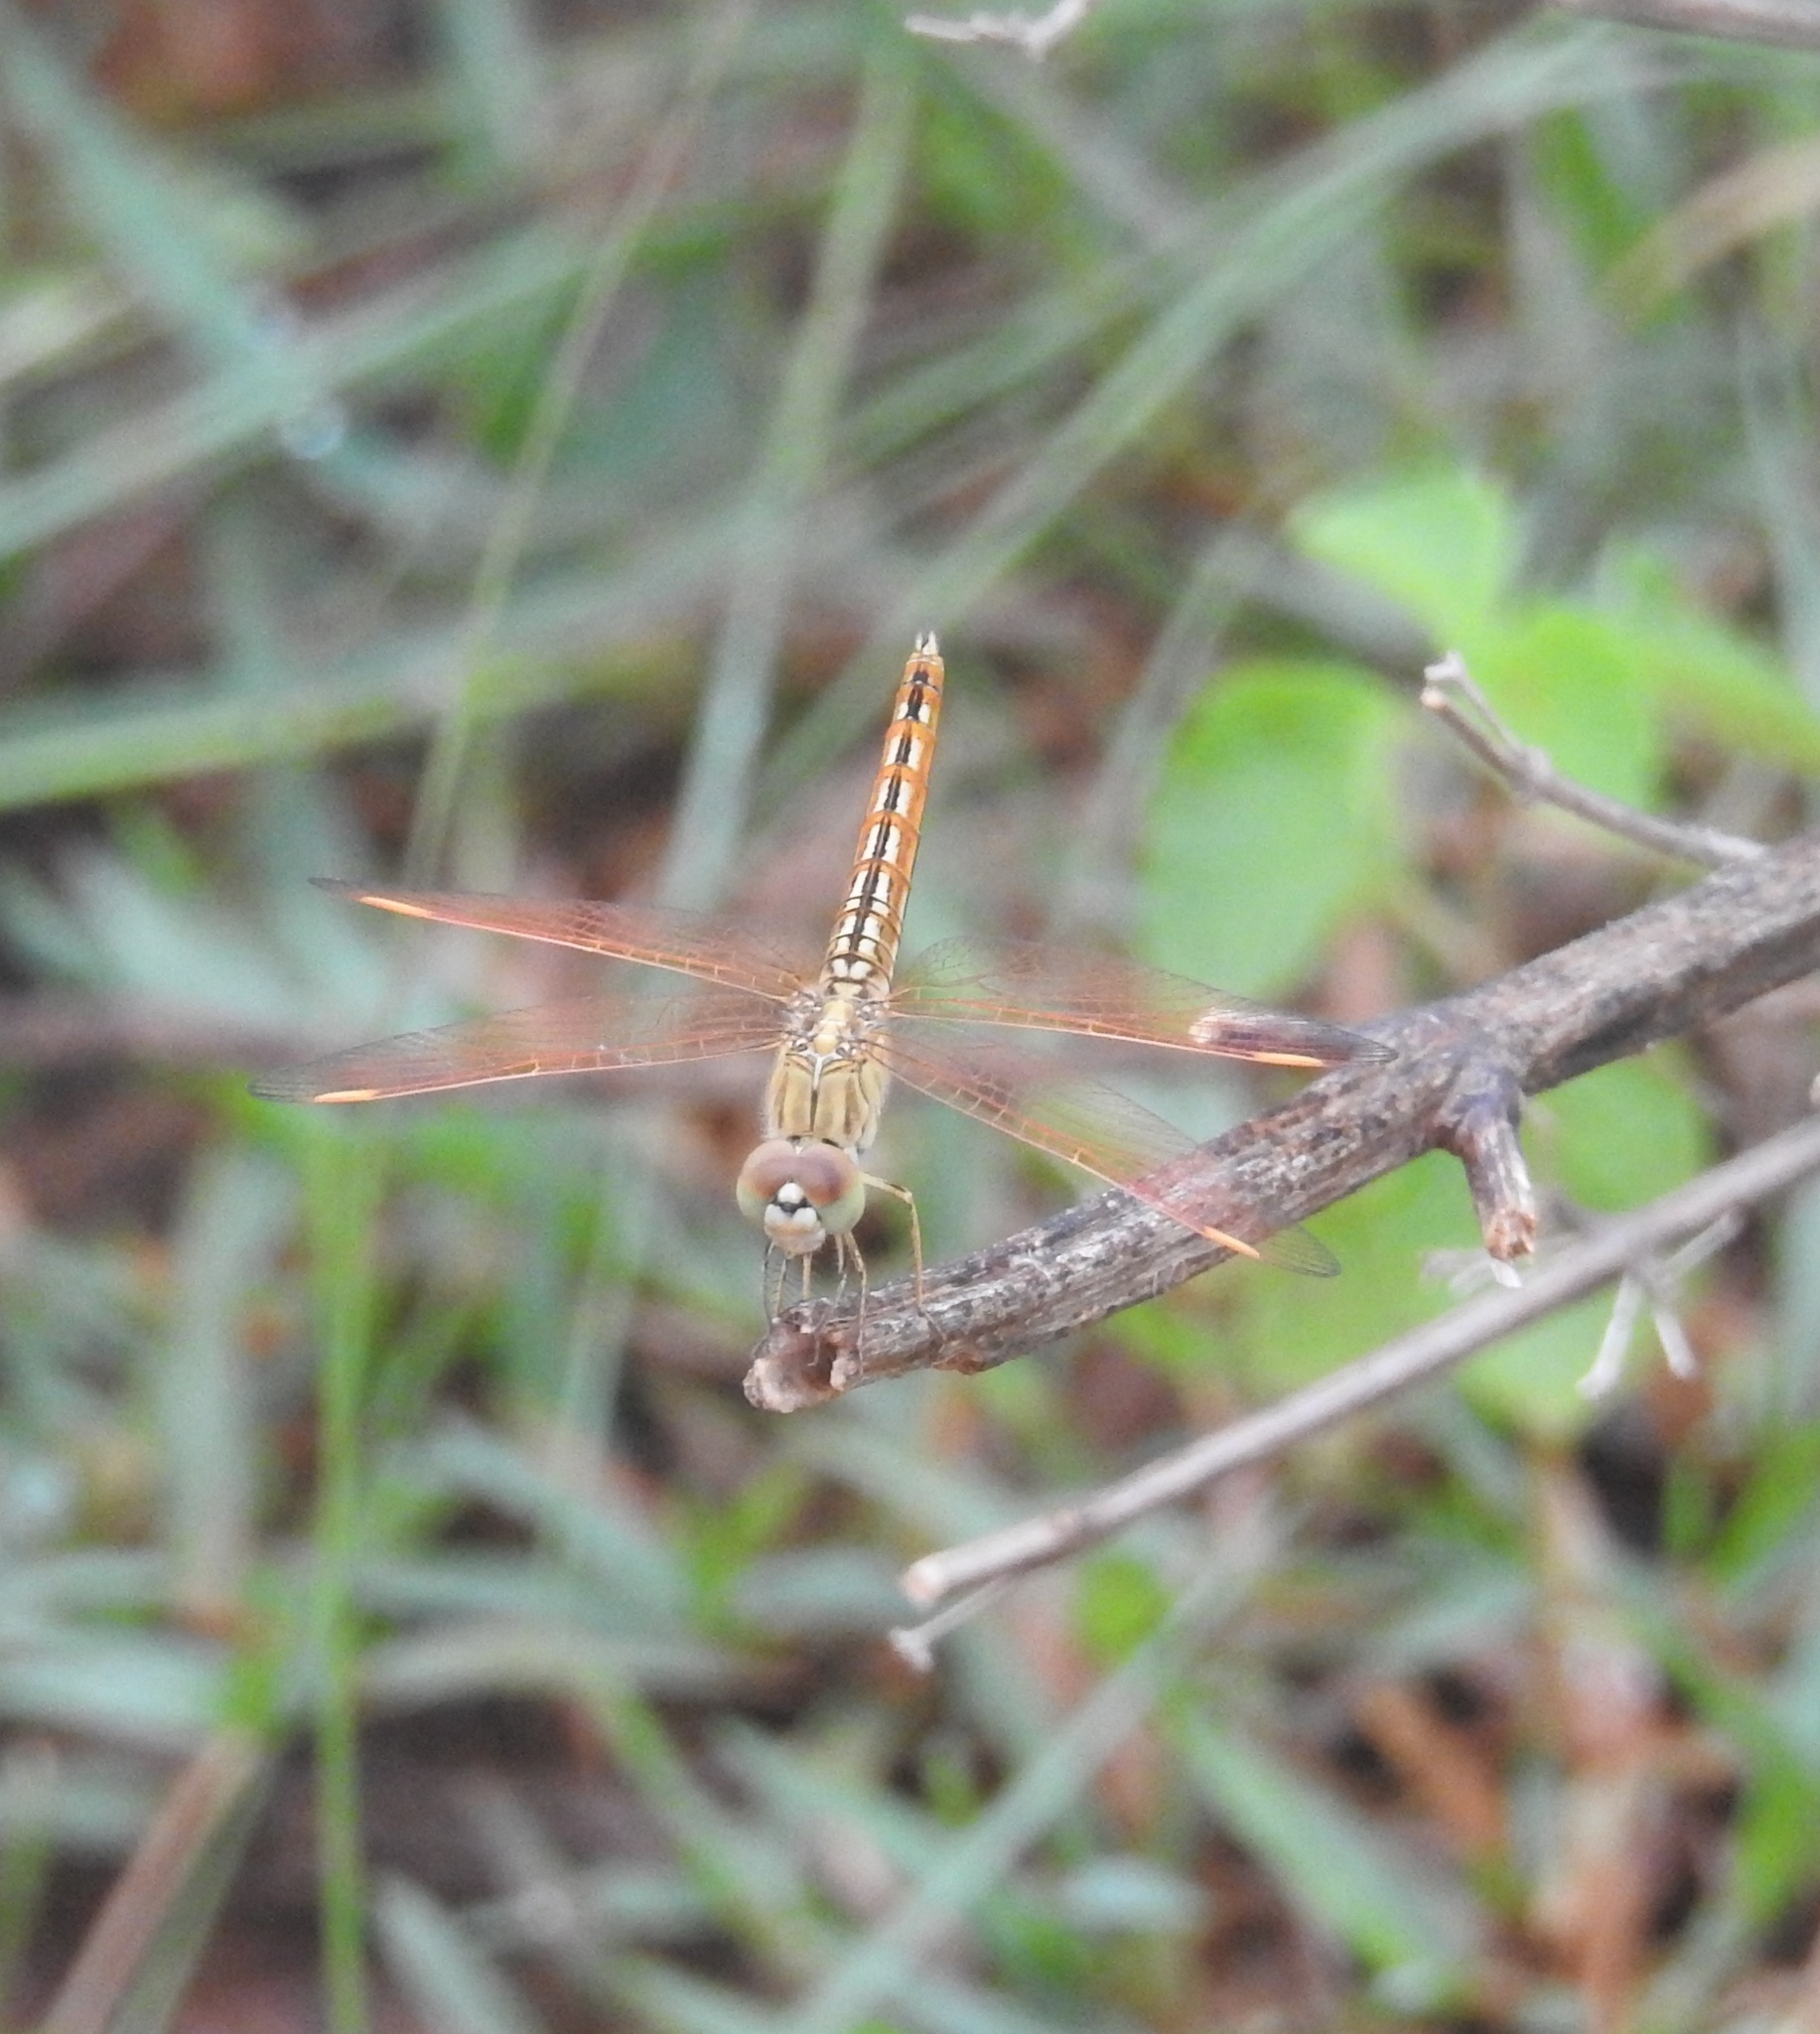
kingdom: Animalia
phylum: Arthropoda
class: Insecta
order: Odonata
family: Libellulidae
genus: Brachythemis
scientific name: Brachythemis contaminata
